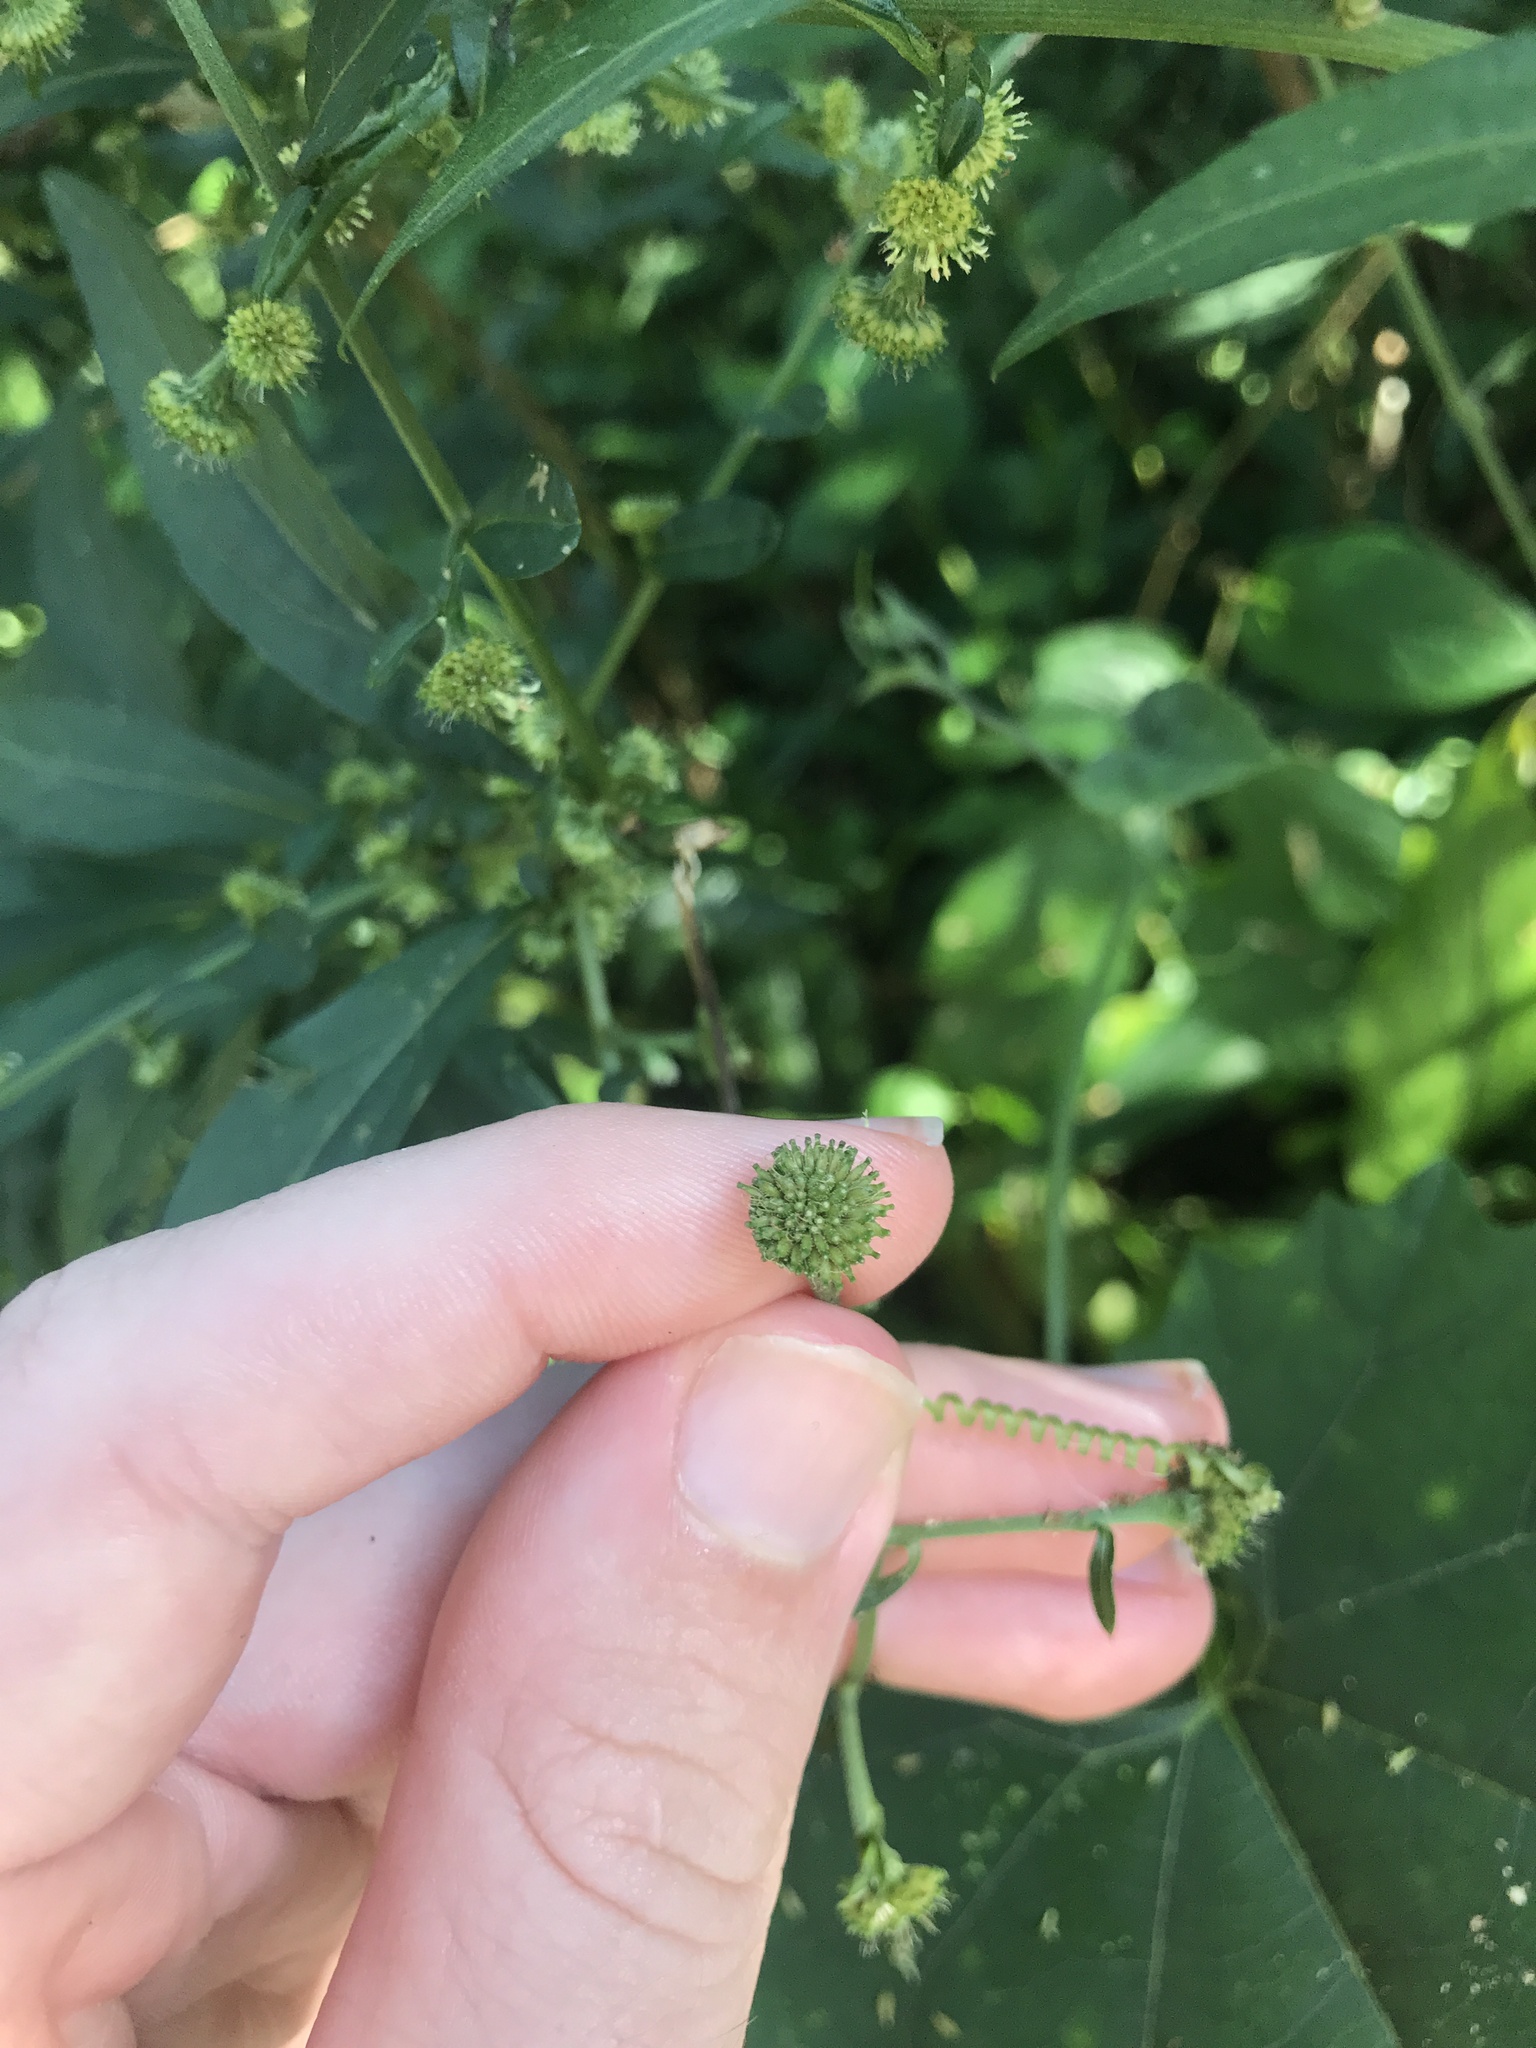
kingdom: Plantae
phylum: Tracheophyta
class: Magnoliopsida
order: Asterales
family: Asteraceae
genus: Rhynchospermum
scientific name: Rhynchospermum verticillatum
